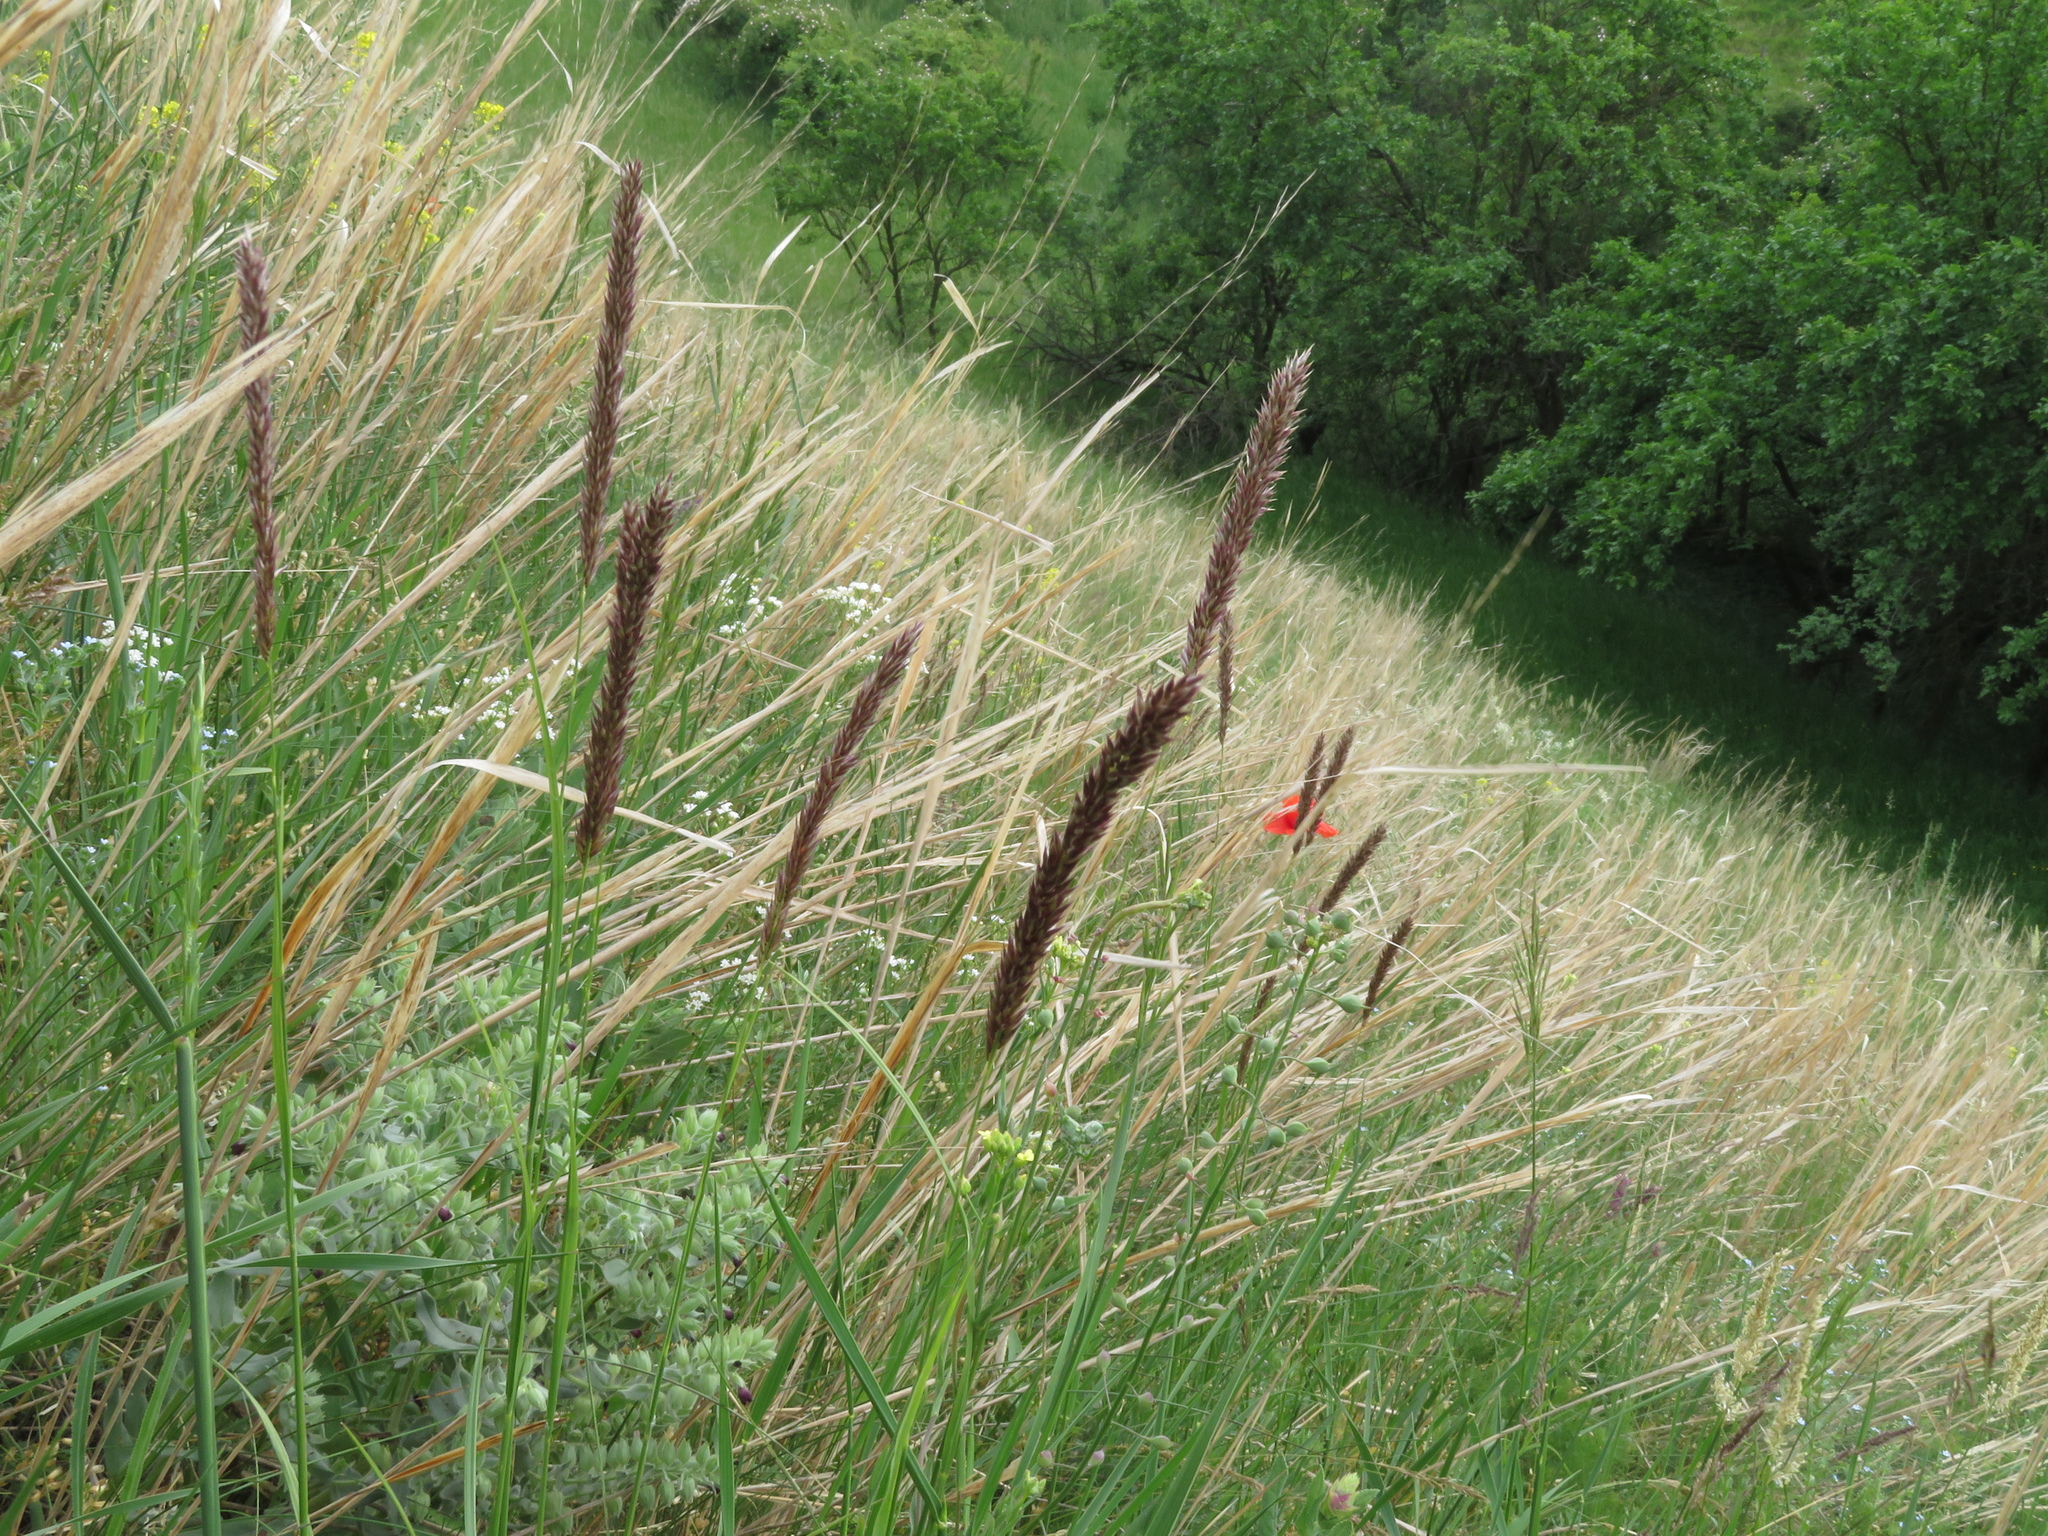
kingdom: Plantae
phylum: Tracheophyta
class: Liliopsida
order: Poales
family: Poaceae
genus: Melica
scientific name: Melica transsilvanica
